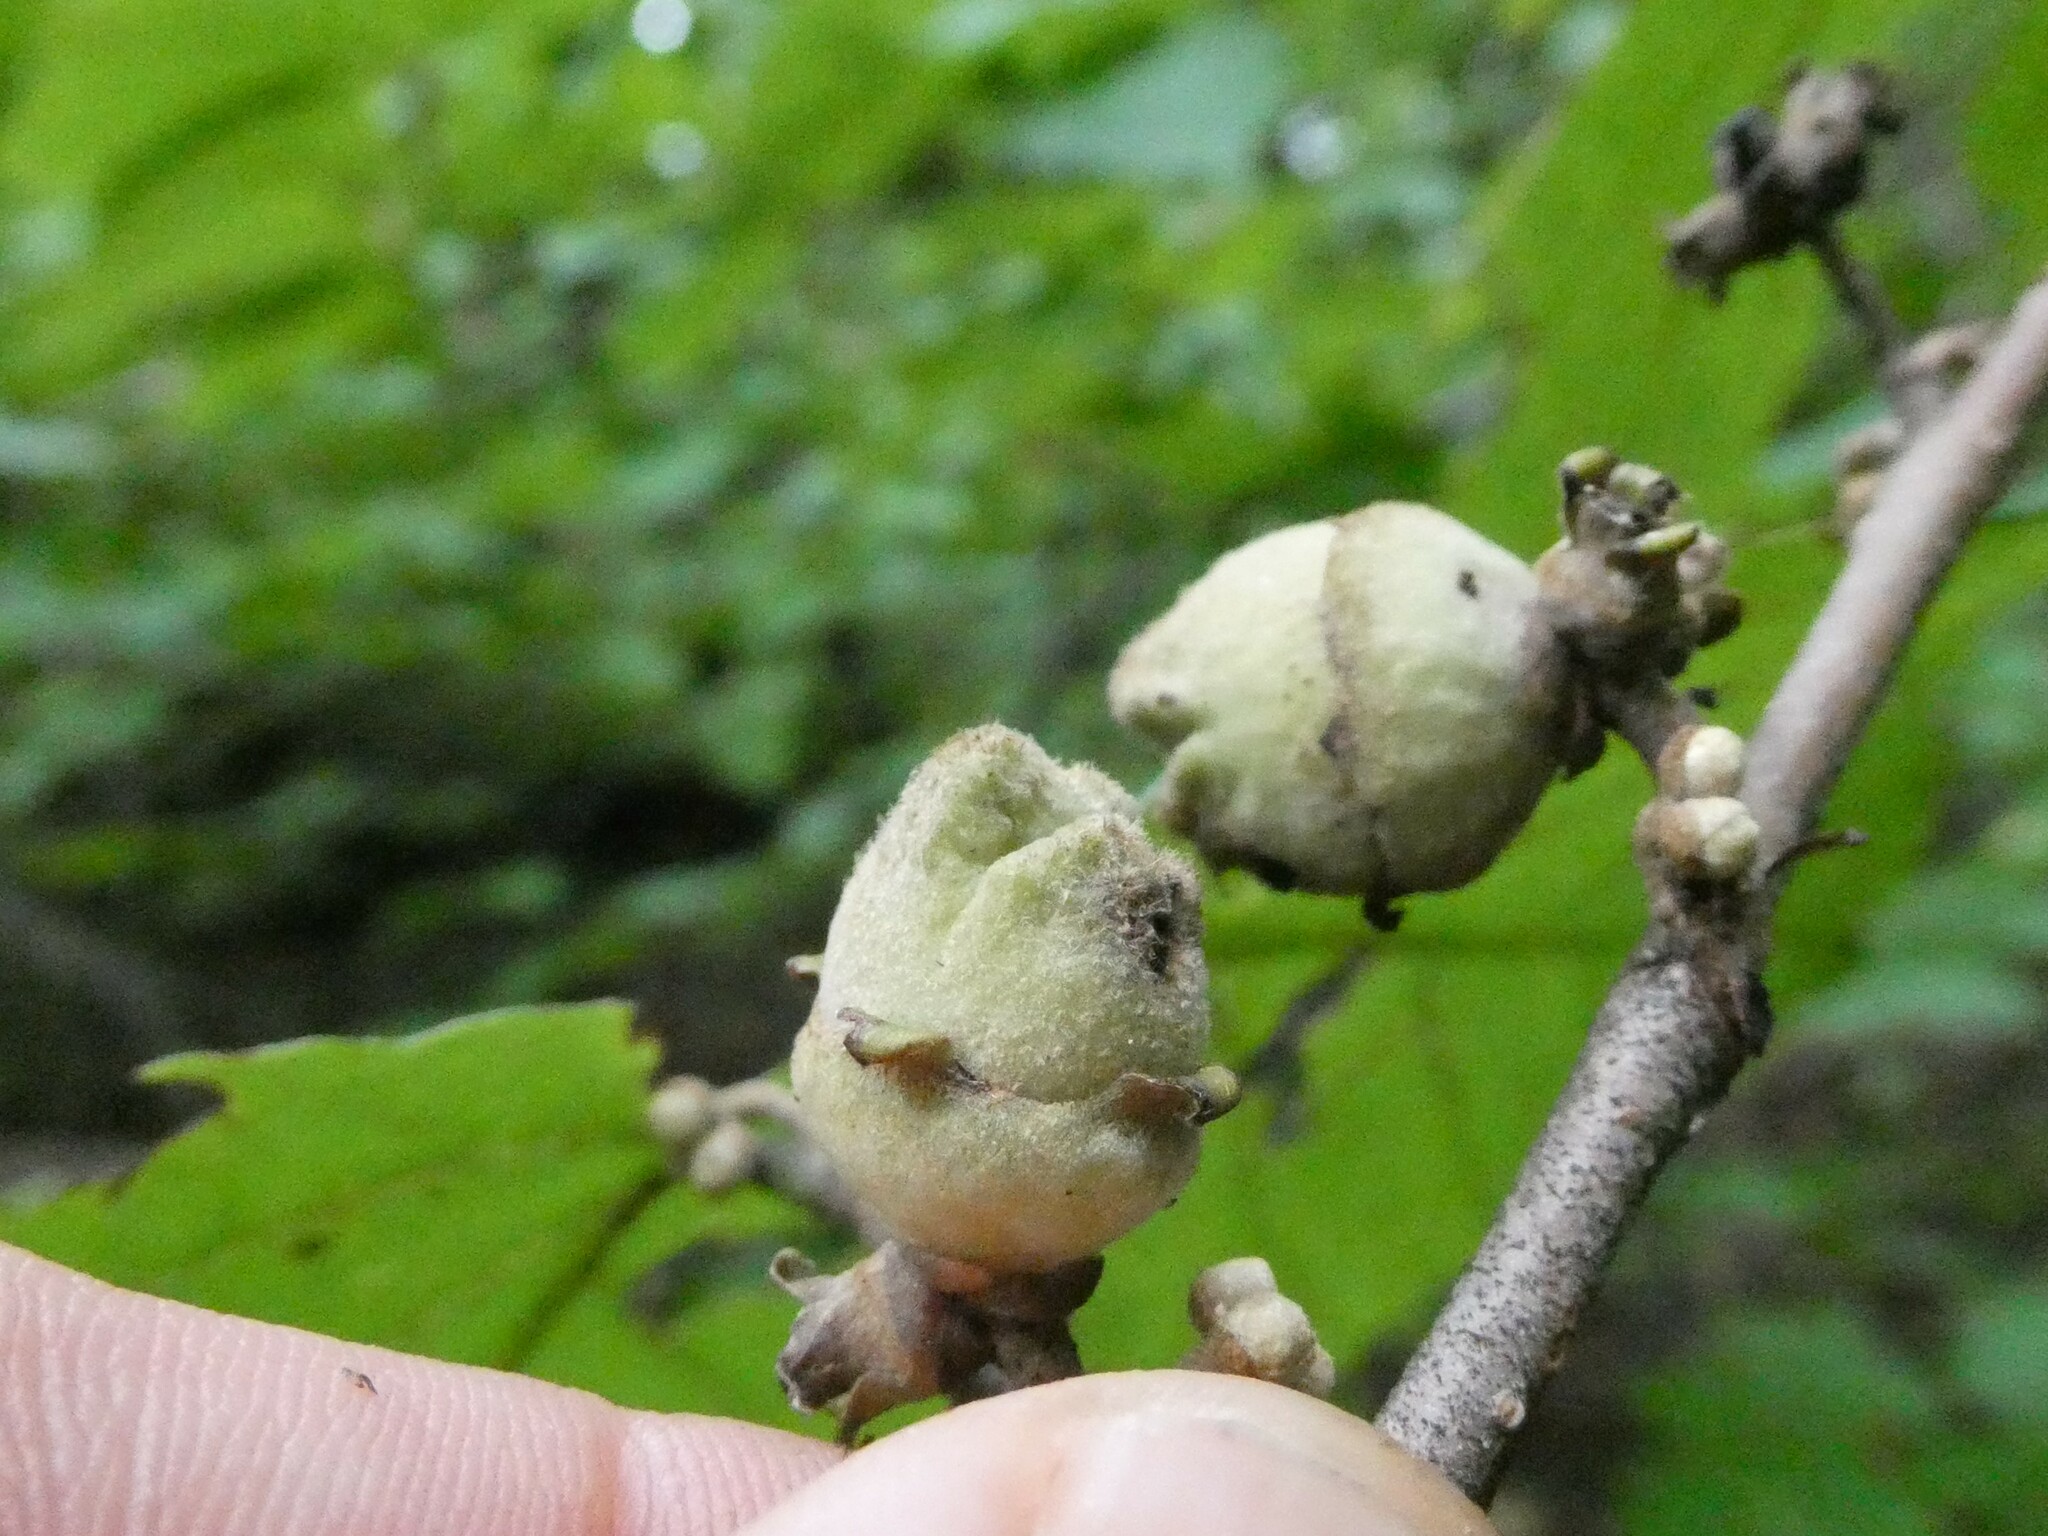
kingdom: Plantae
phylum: Tracheophyta
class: Magnoliopsida
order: Saxifragales
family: Hamamelidaceae
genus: Hamamelis
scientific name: Hamamelis virginiana
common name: Witch-hazel
